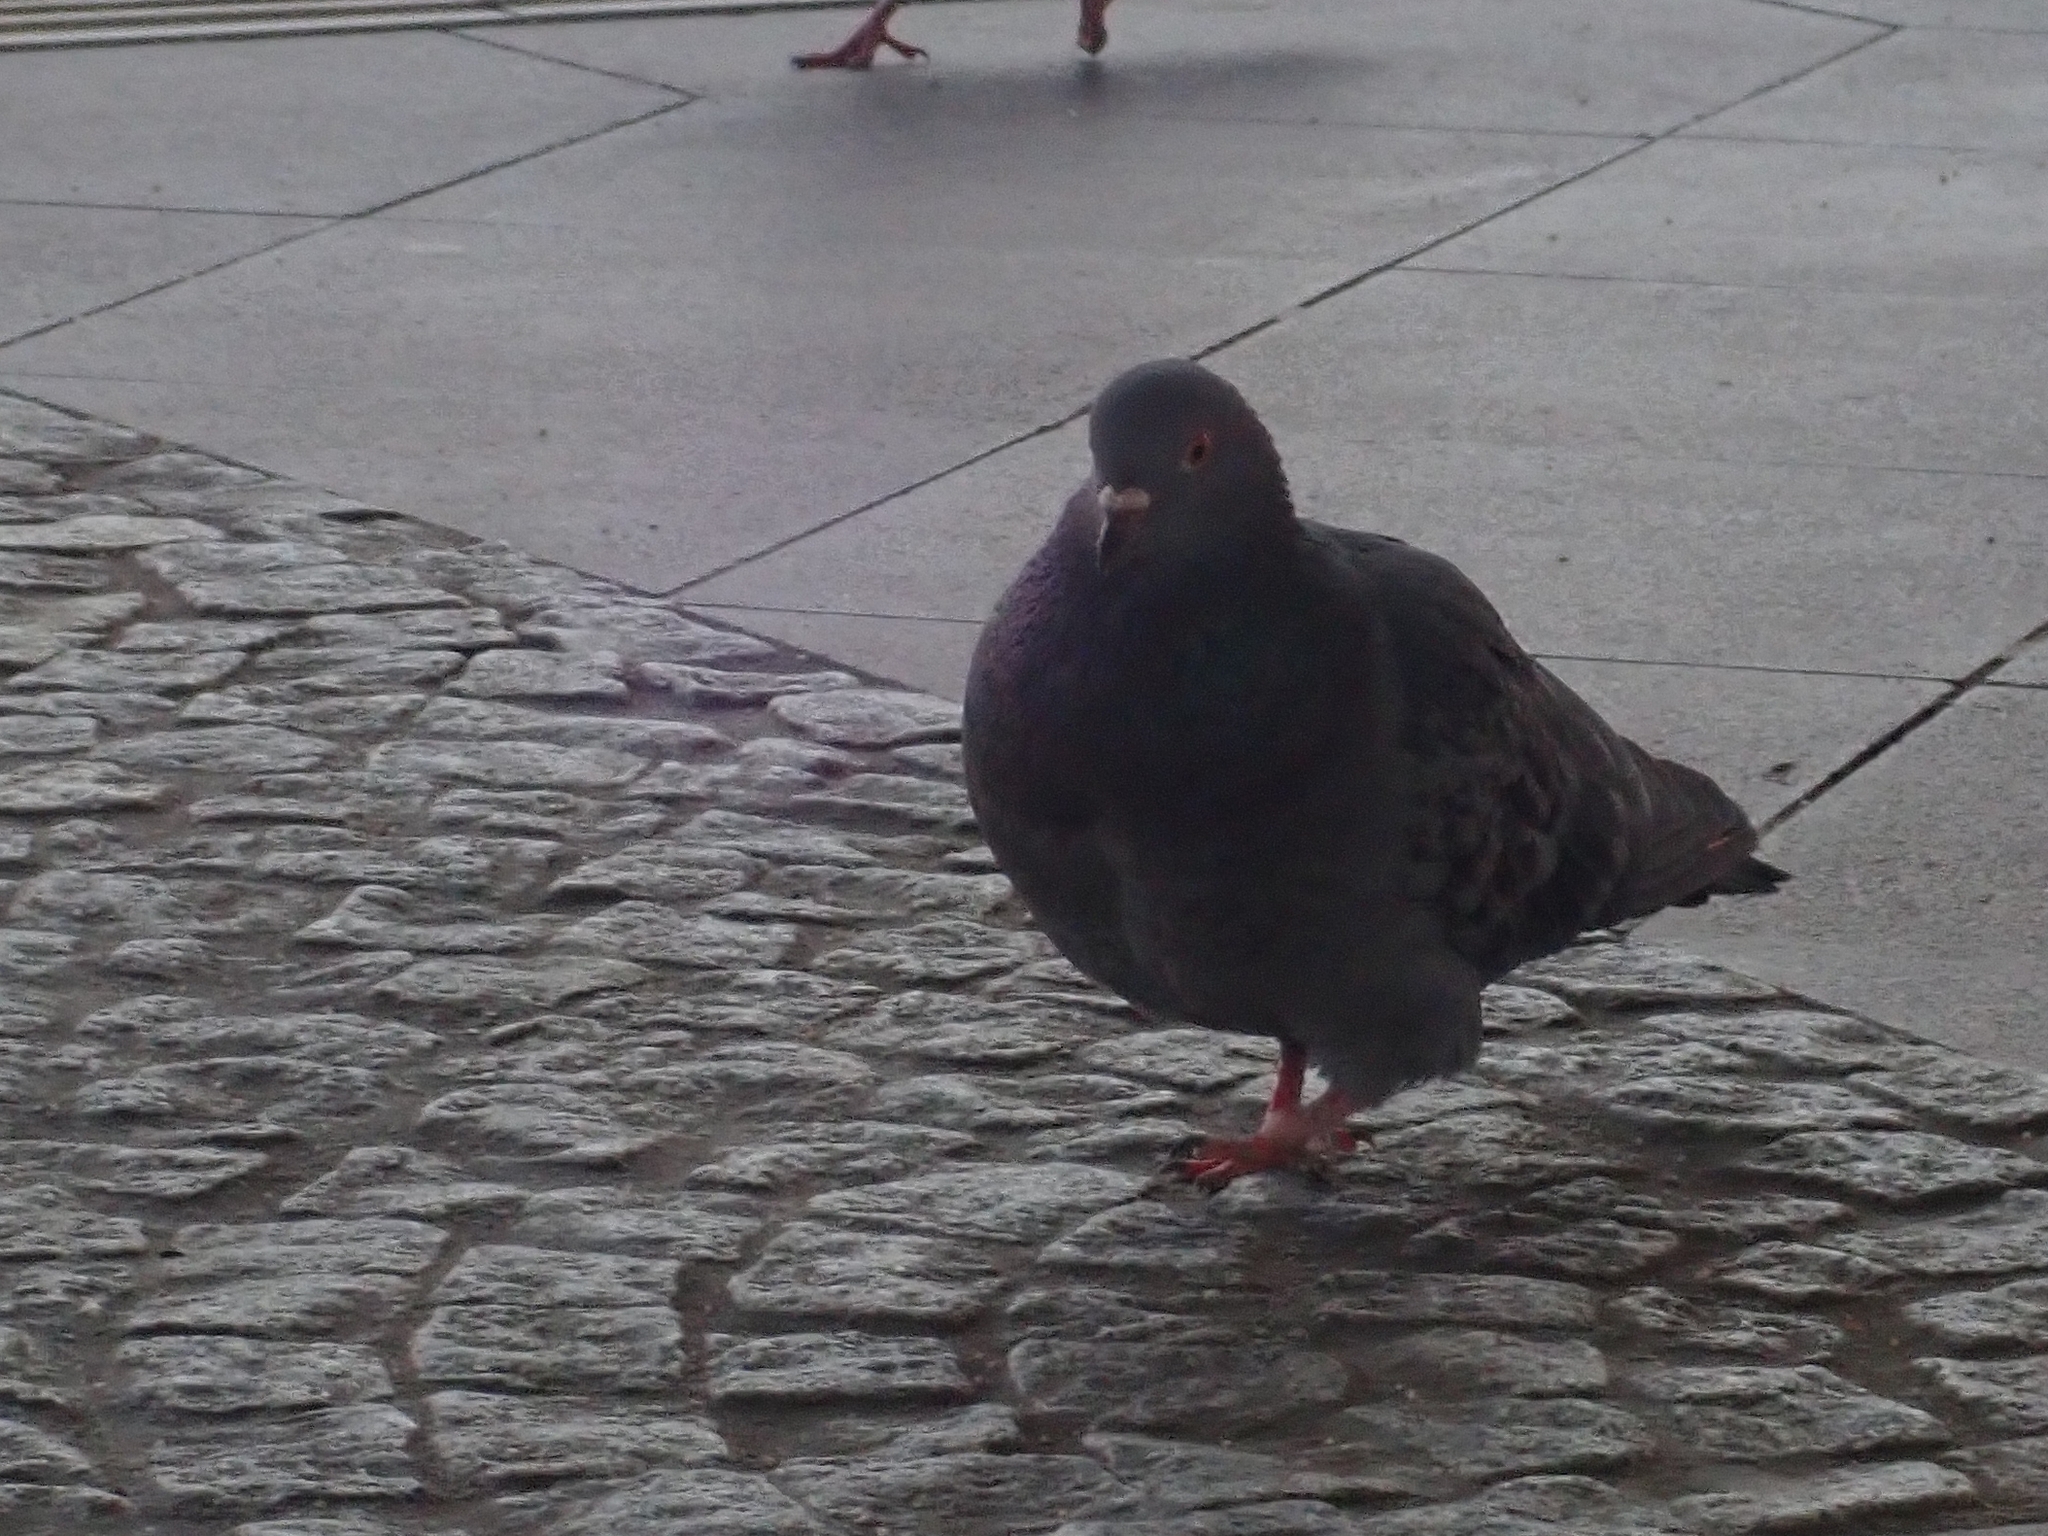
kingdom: Animalia
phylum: Chordata
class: Aves
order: Columbiformes
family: Columbidae
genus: Columba
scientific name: Columba livia
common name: Rock pigeon
